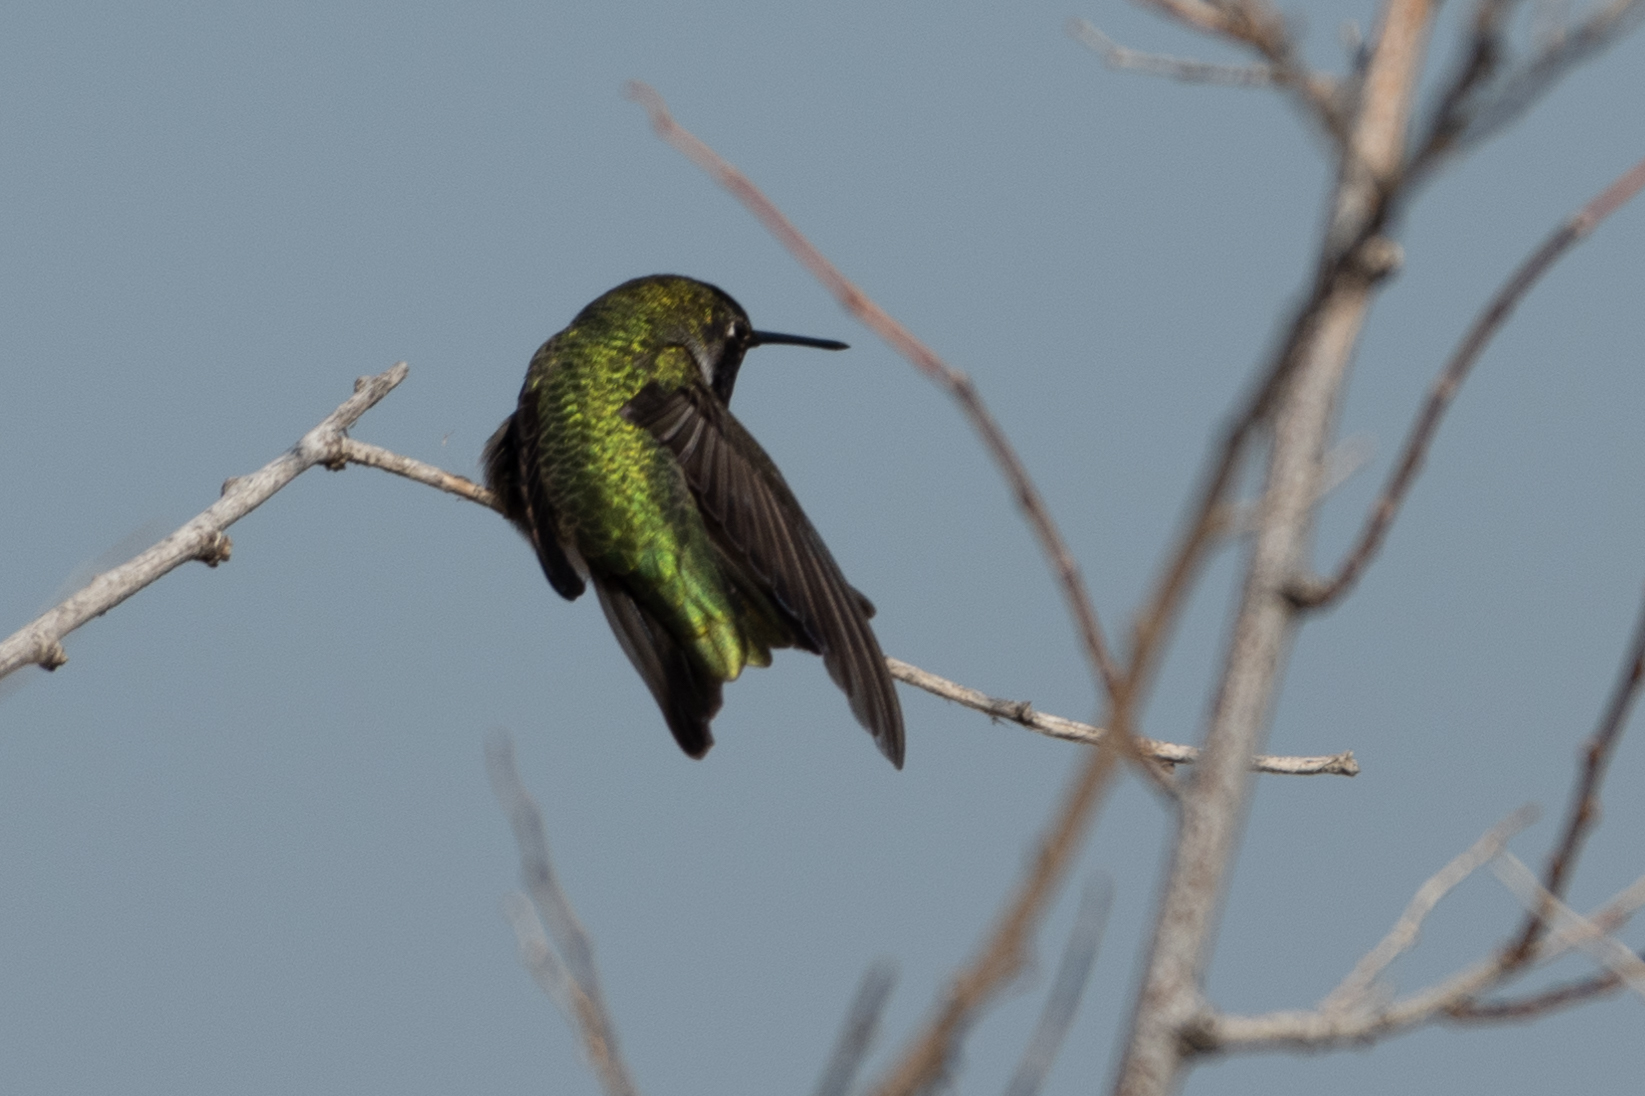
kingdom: Animalia
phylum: Chordata
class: Aves
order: Apodiformes
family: Trochilidae
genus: Calypte
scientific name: Calypte anna
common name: Anna's hummingbird
